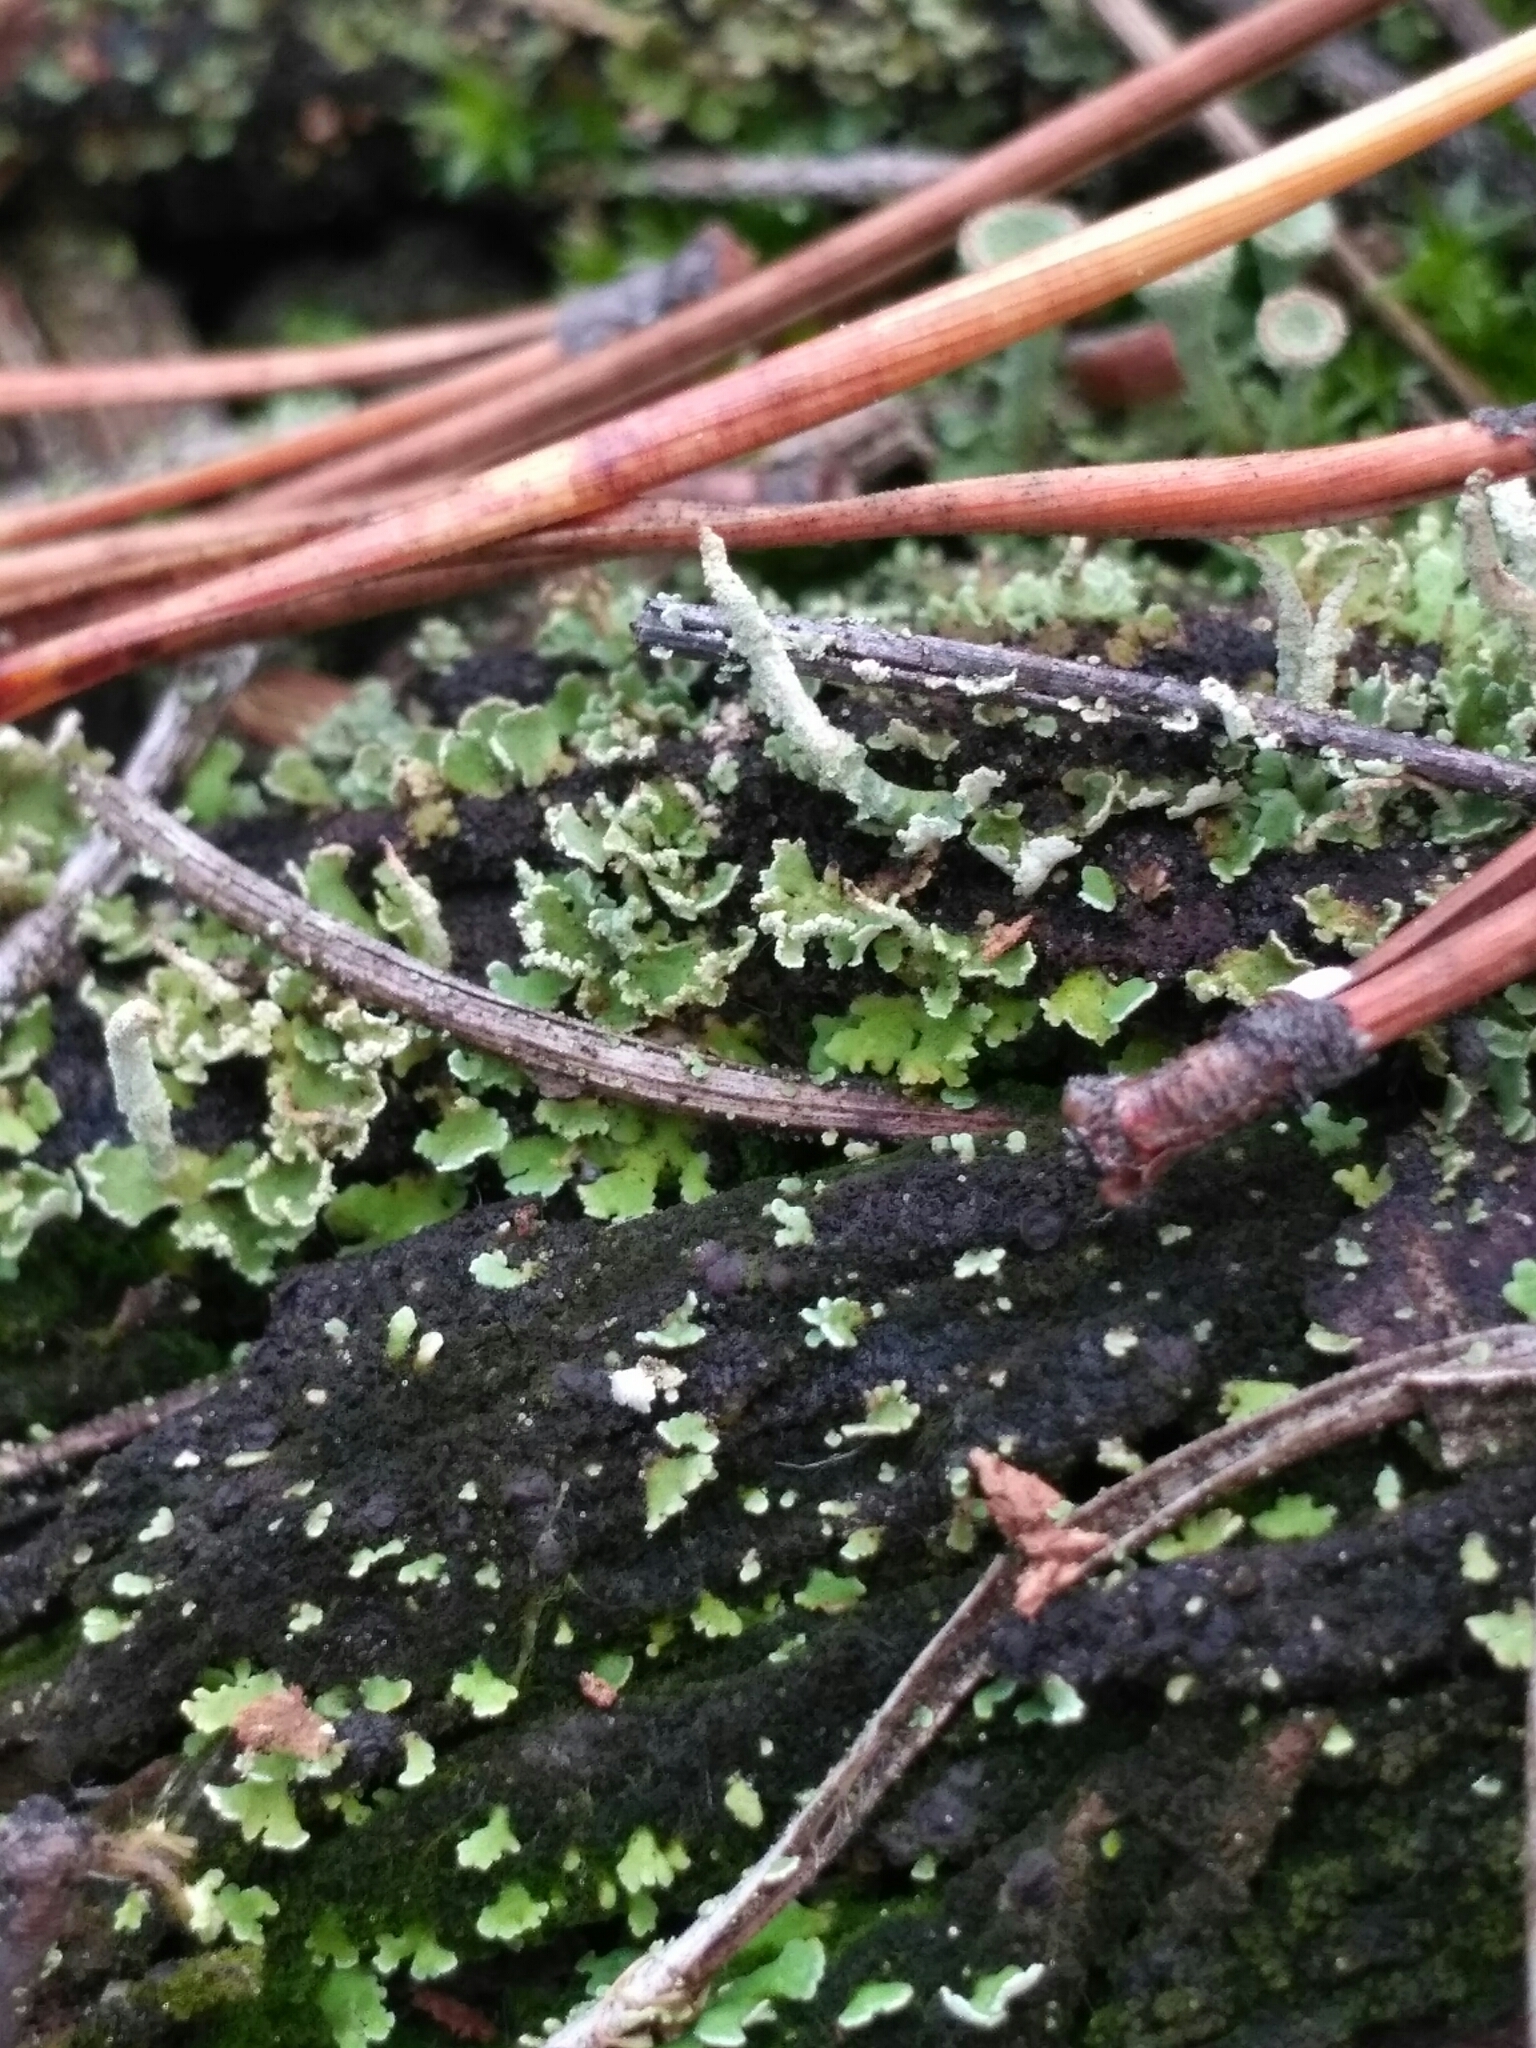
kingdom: Fungi
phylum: Ascomycota
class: Lecanoromycetes
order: Lecanorales
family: Cladoniaceae
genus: Cladonia
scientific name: Cladonia macilenta
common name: Lipstick powderhorn
